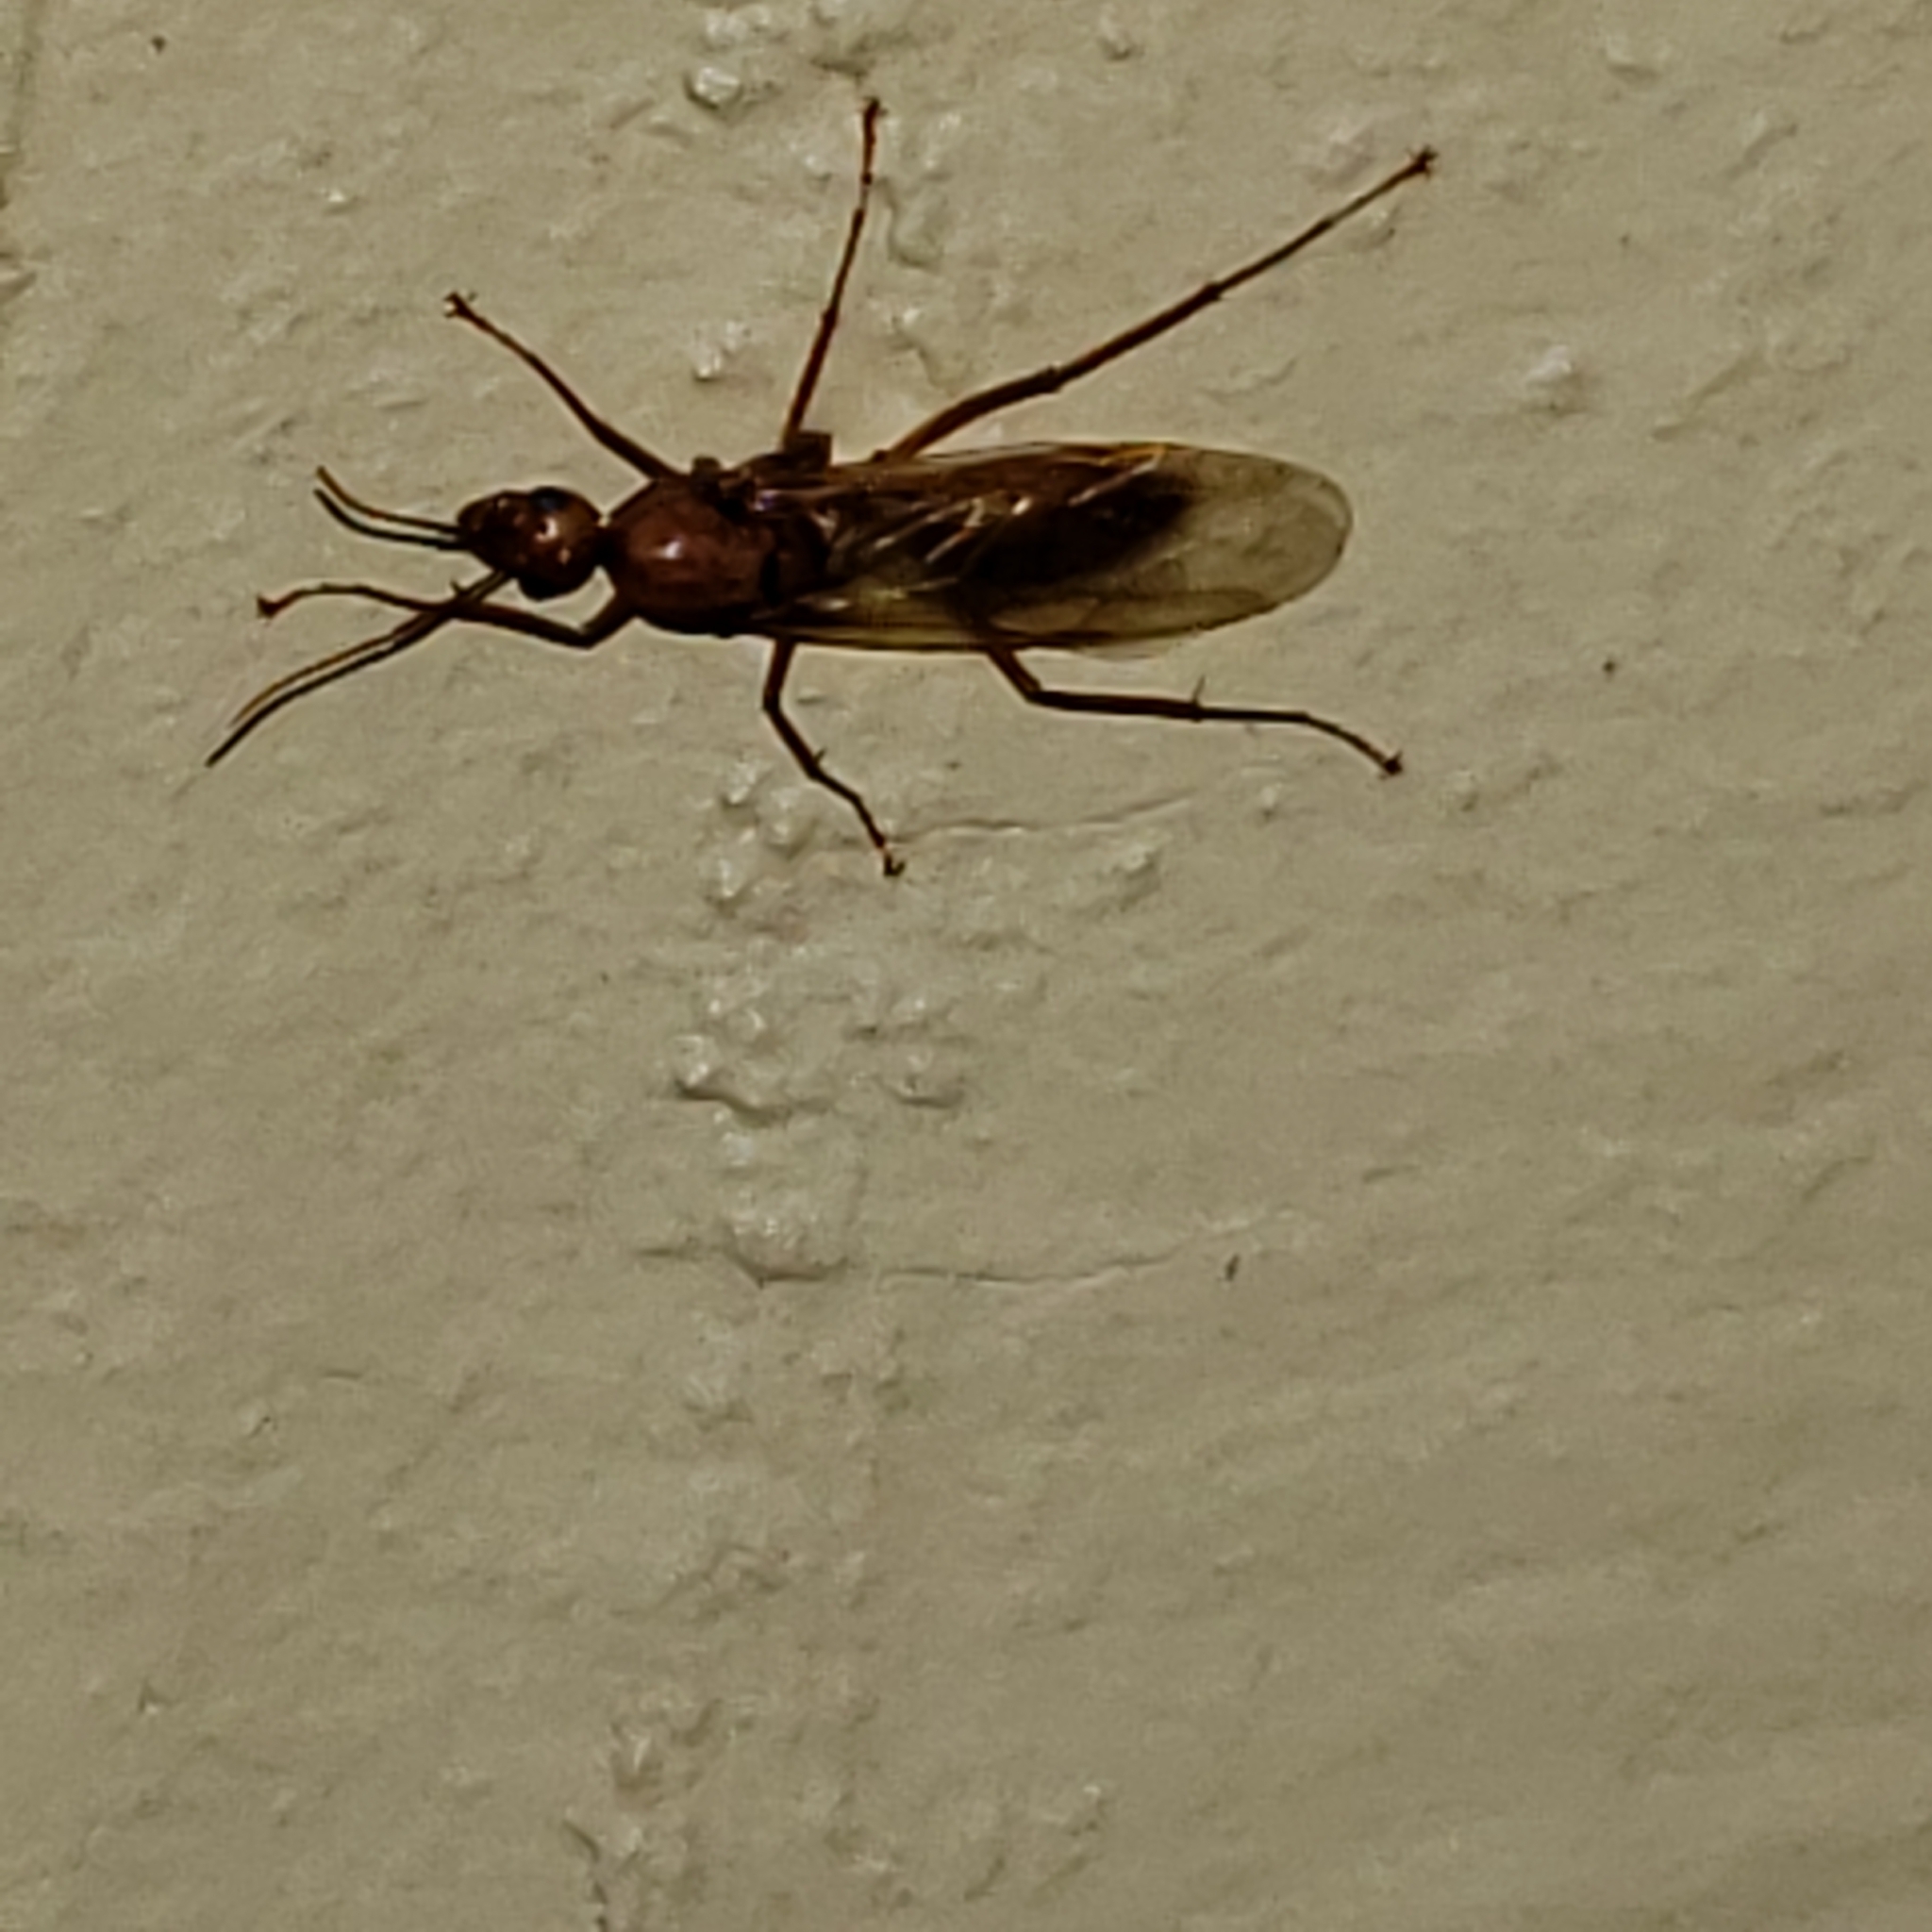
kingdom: Animalia
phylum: Arthropoda
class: Insecta
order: Hymenoptera
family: Formicidae
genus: Camponotus
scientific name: Camponotus castaneus
